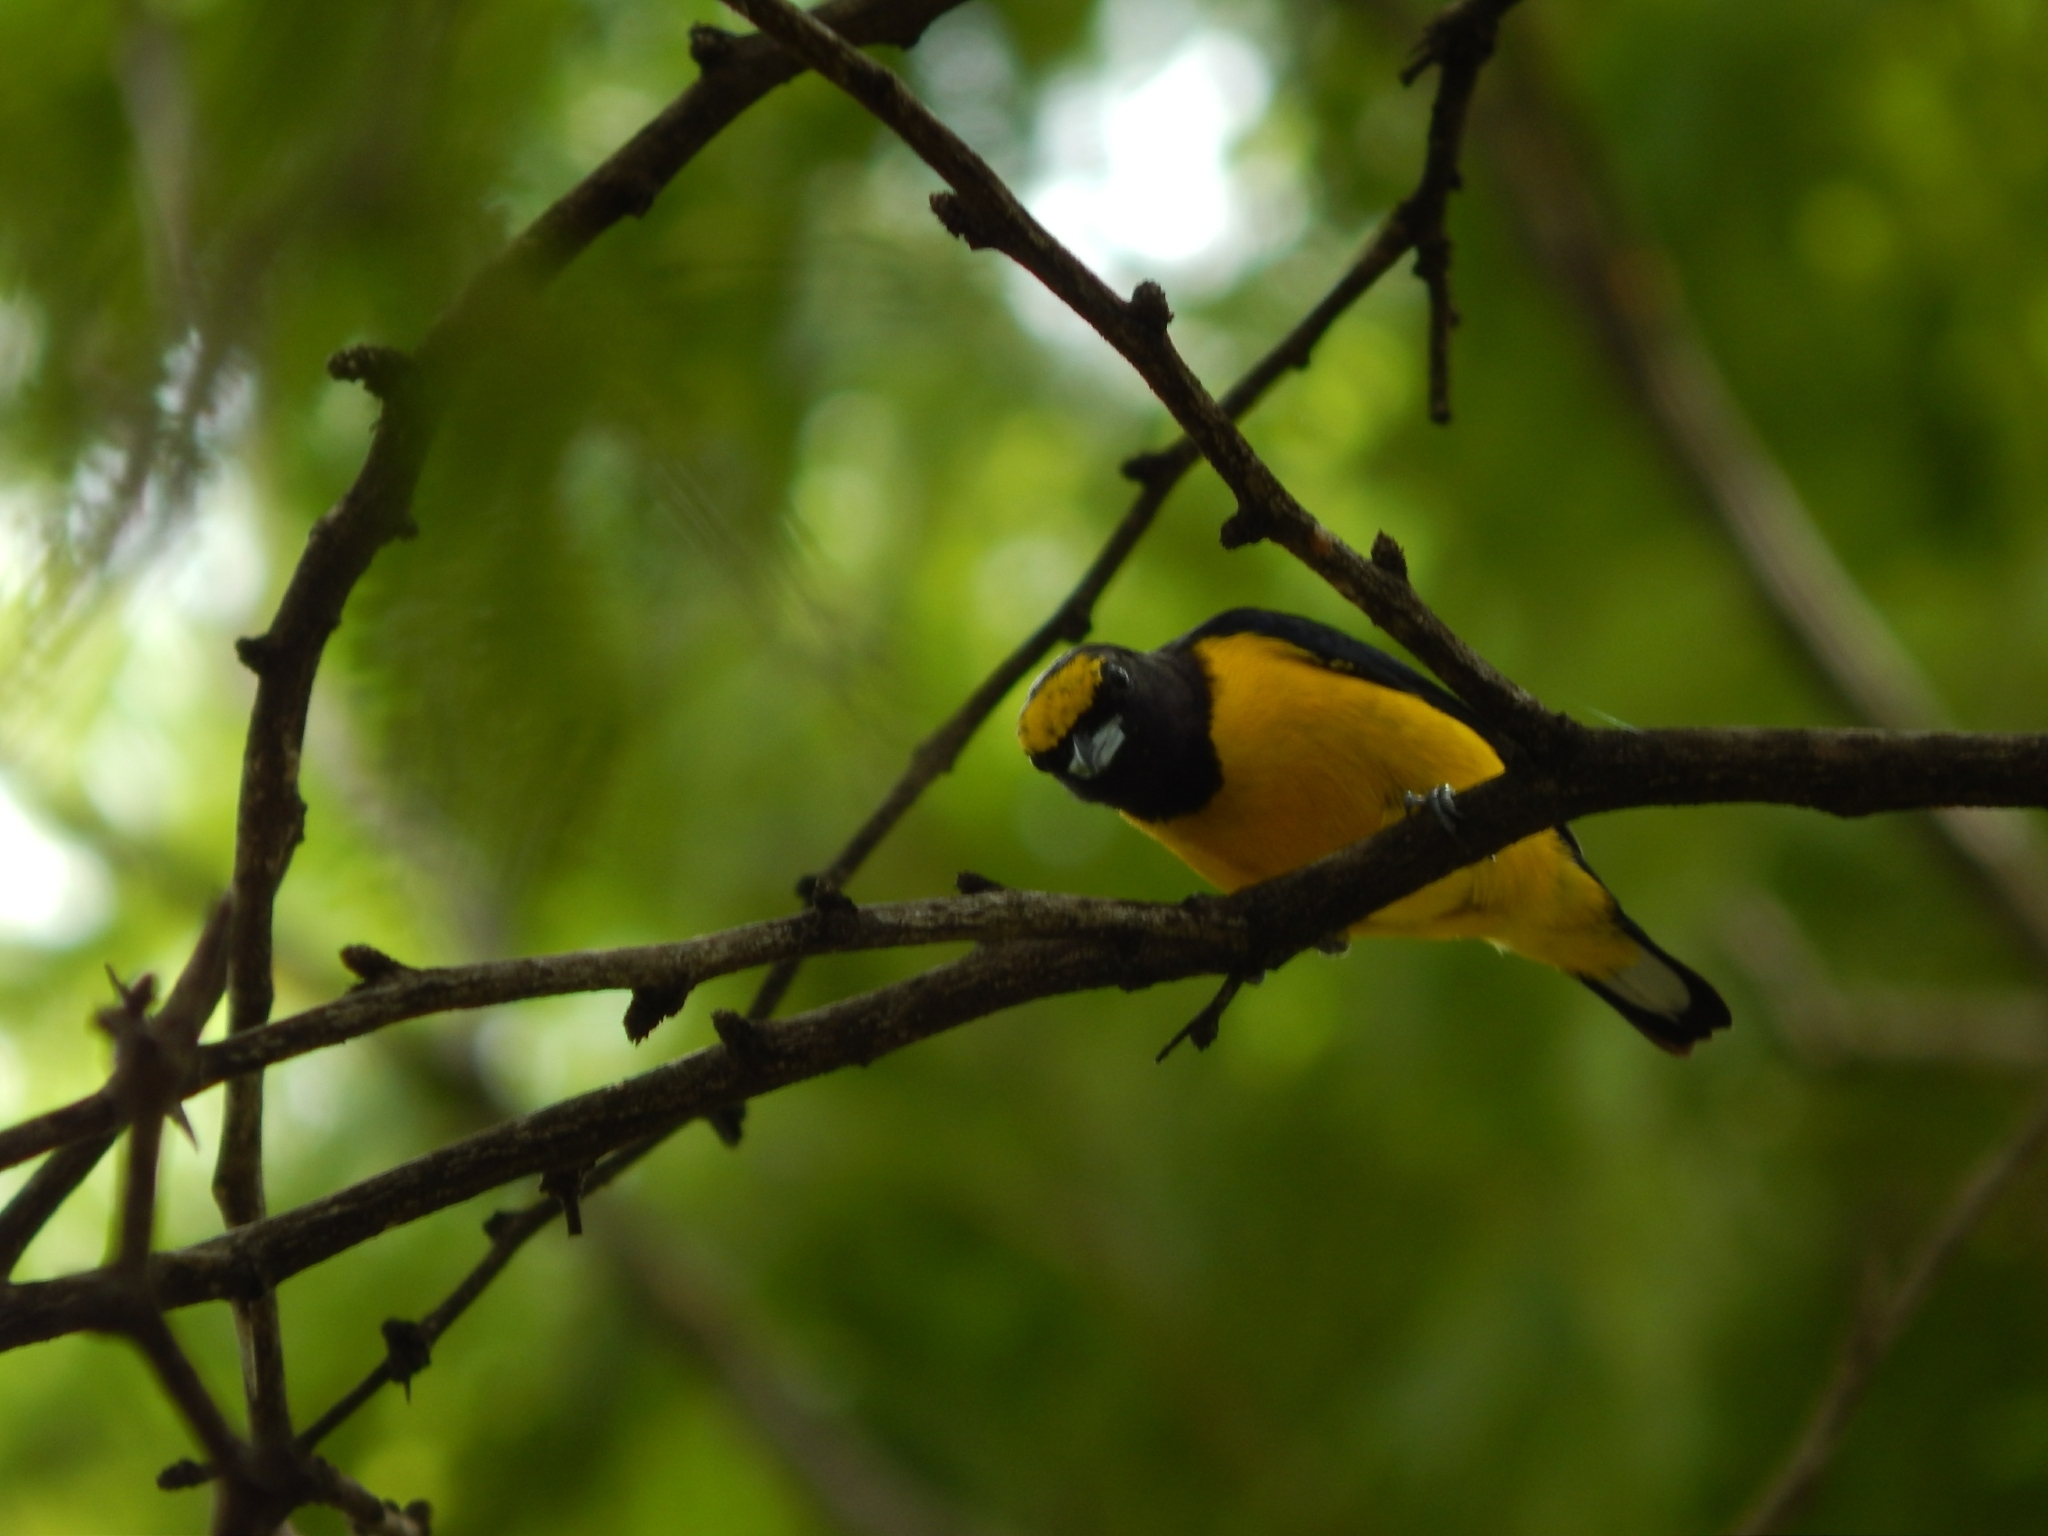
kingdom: Animalia
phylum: Chordata
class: Aves
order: Passeriformes
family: Fringillidae
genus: Euphonia
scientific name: Euphonia affinis
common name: Scrub euphonia
